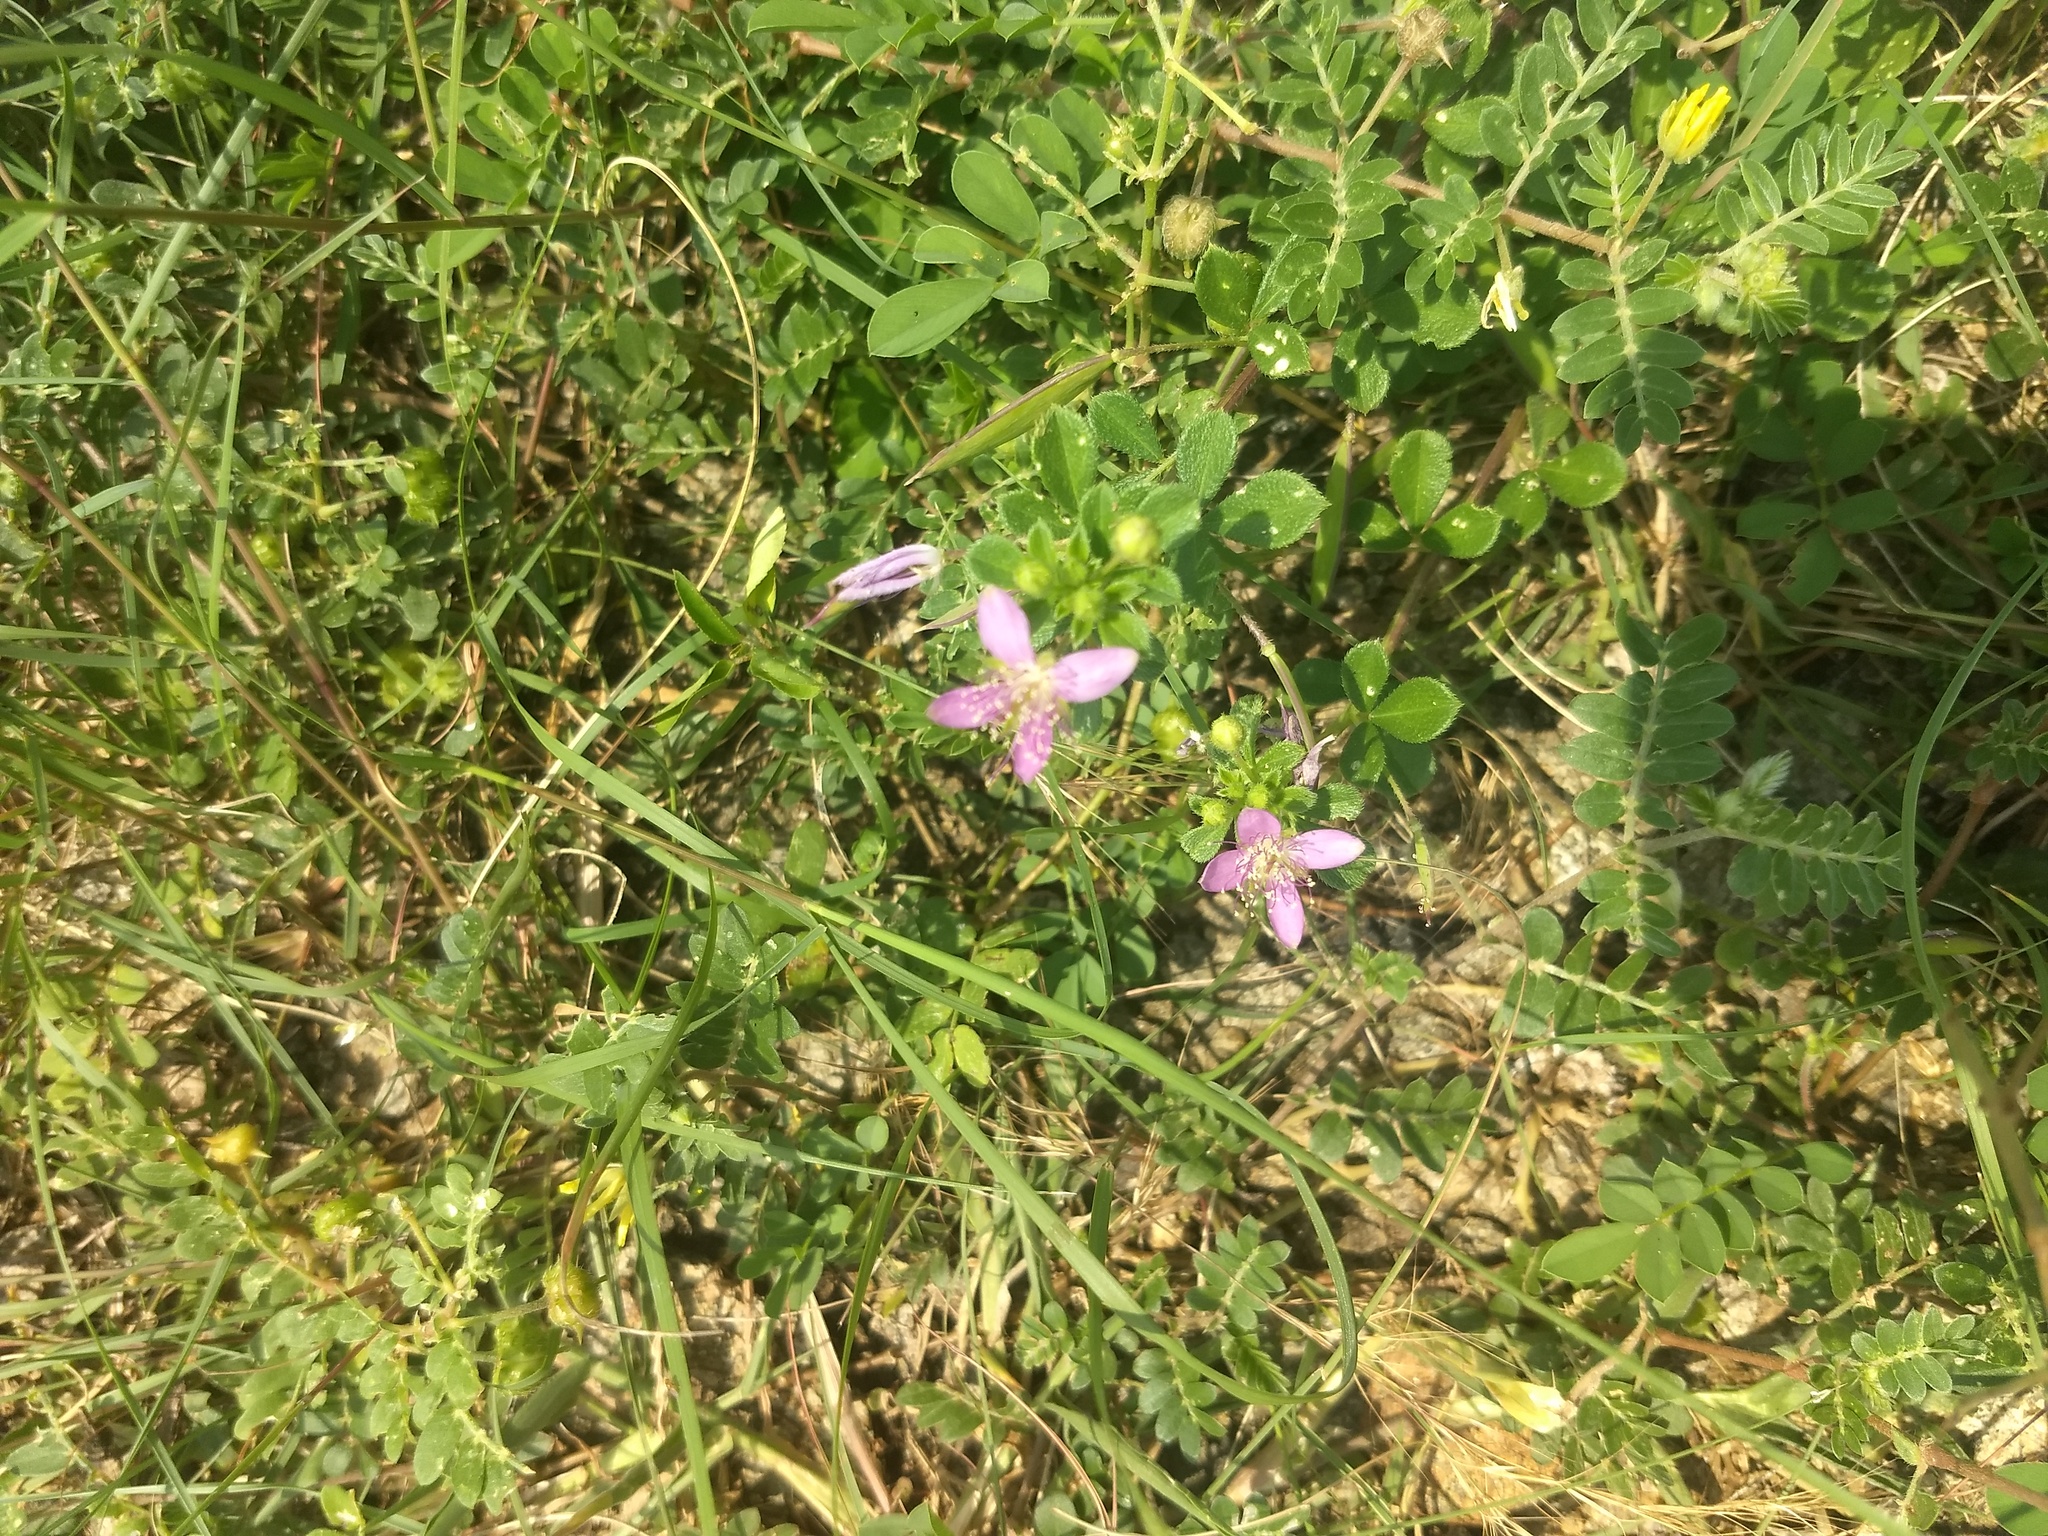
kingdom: Plantae
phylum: Tracheophyta
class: Magnoliopsida
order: Brassicales
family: Cleomaceae
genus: Corynandra
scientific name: Corynandra felina
